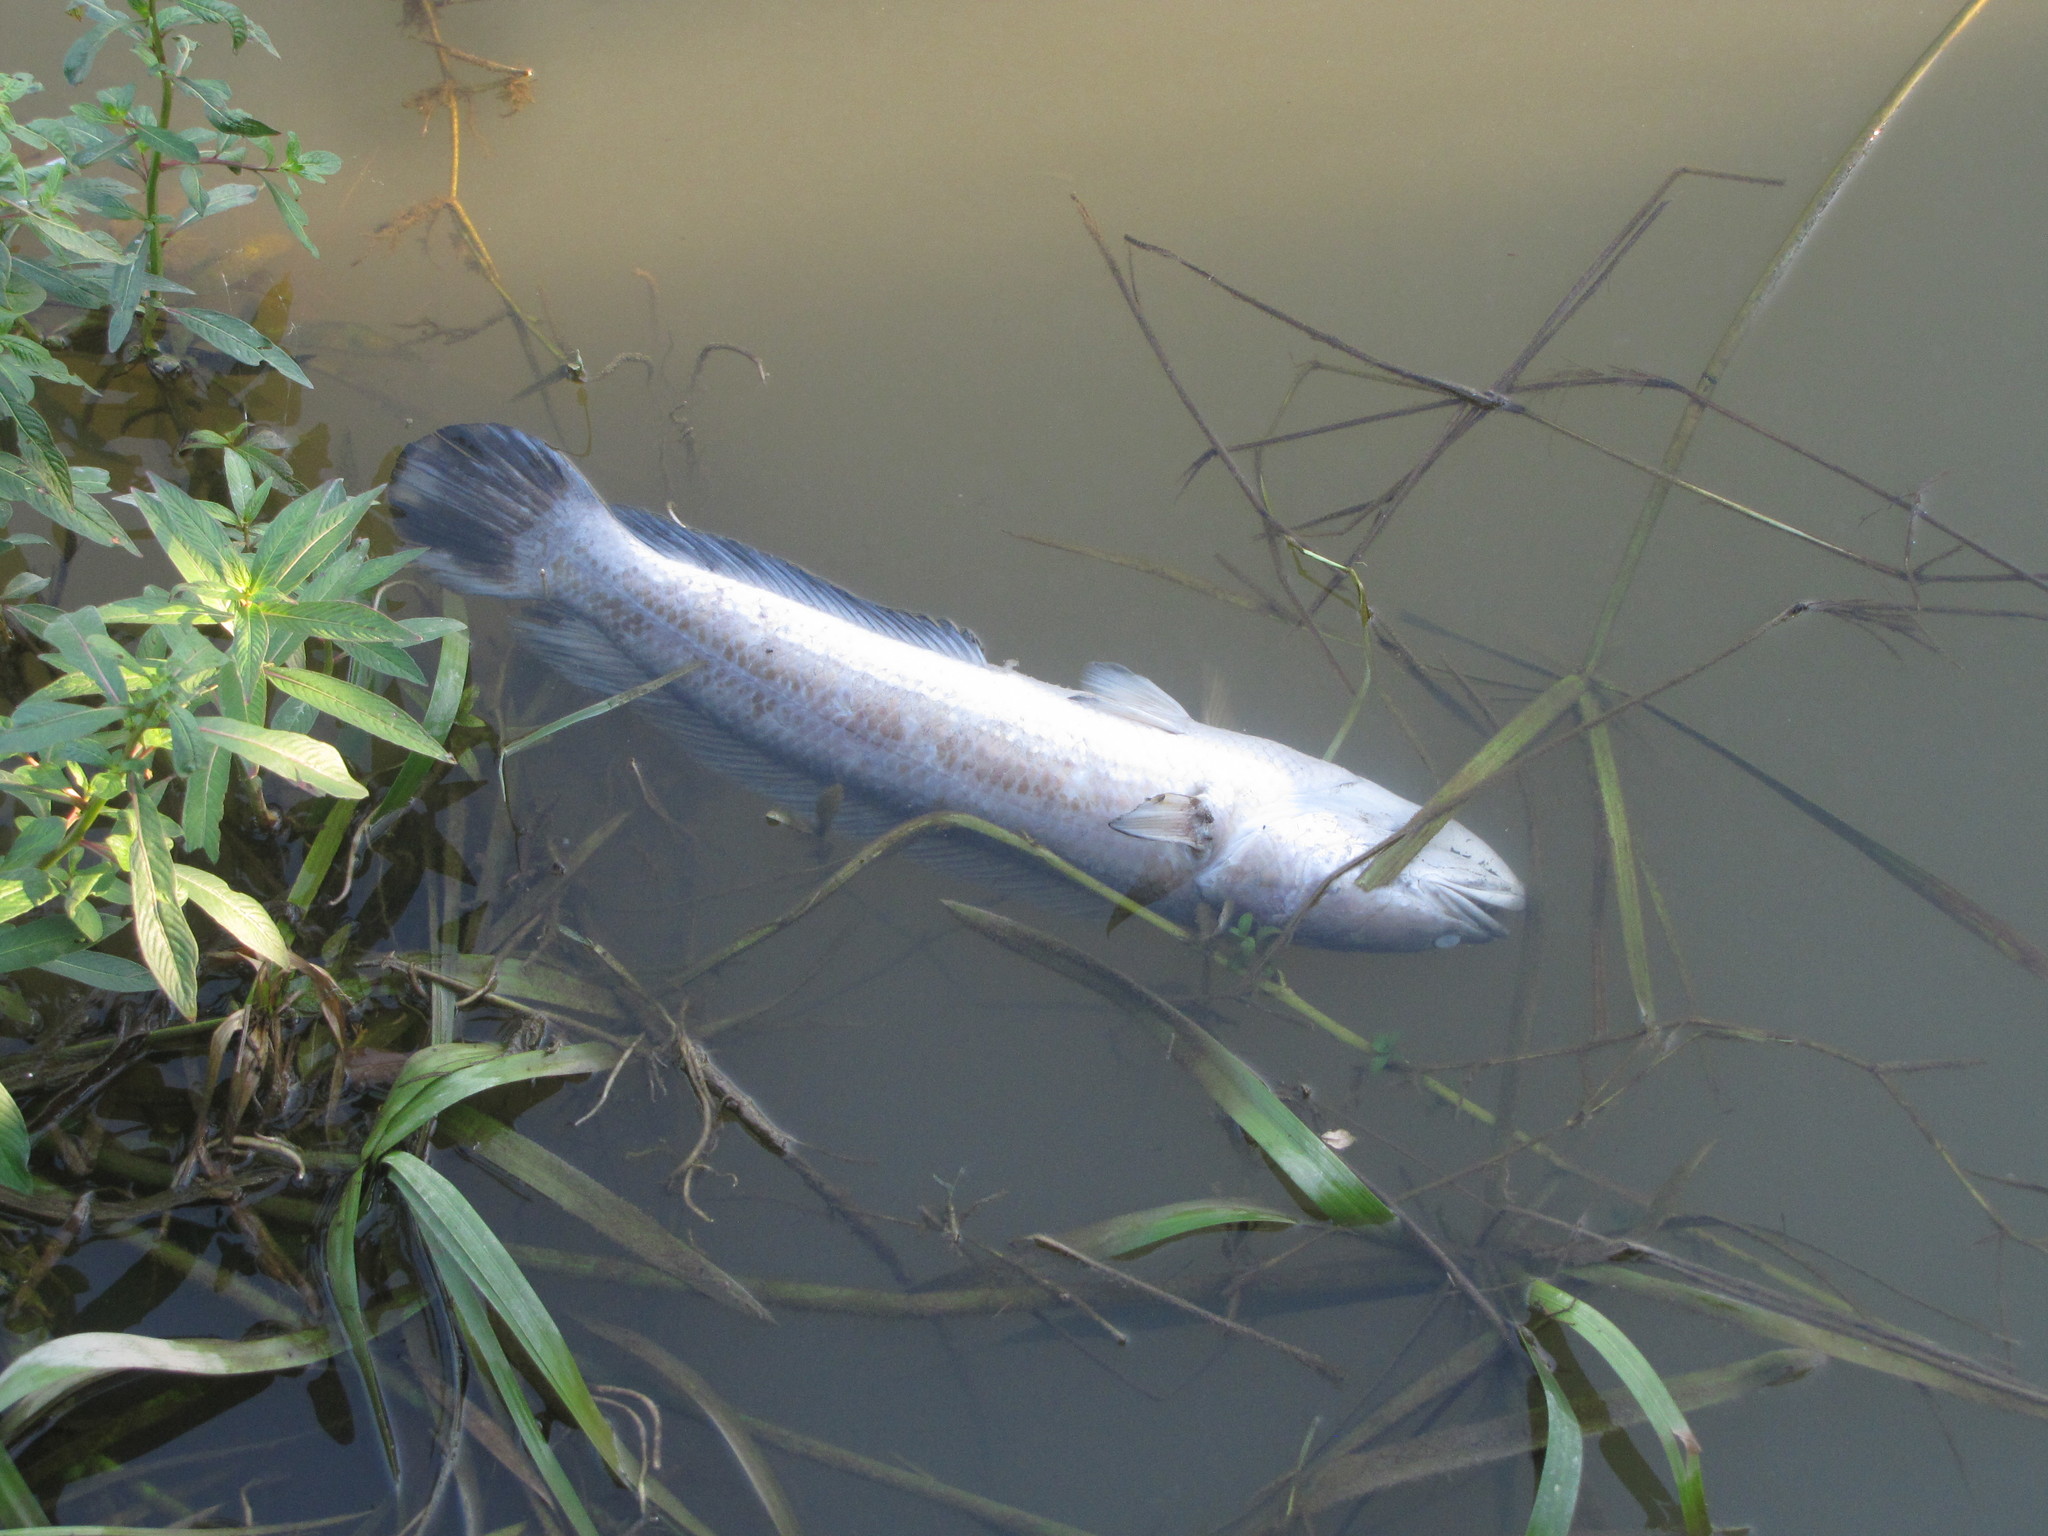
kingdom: Animalia
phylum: Chordata
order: Perciformes
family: Channidae
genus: Channa
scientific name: Channa striata
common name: Striped snakehead
